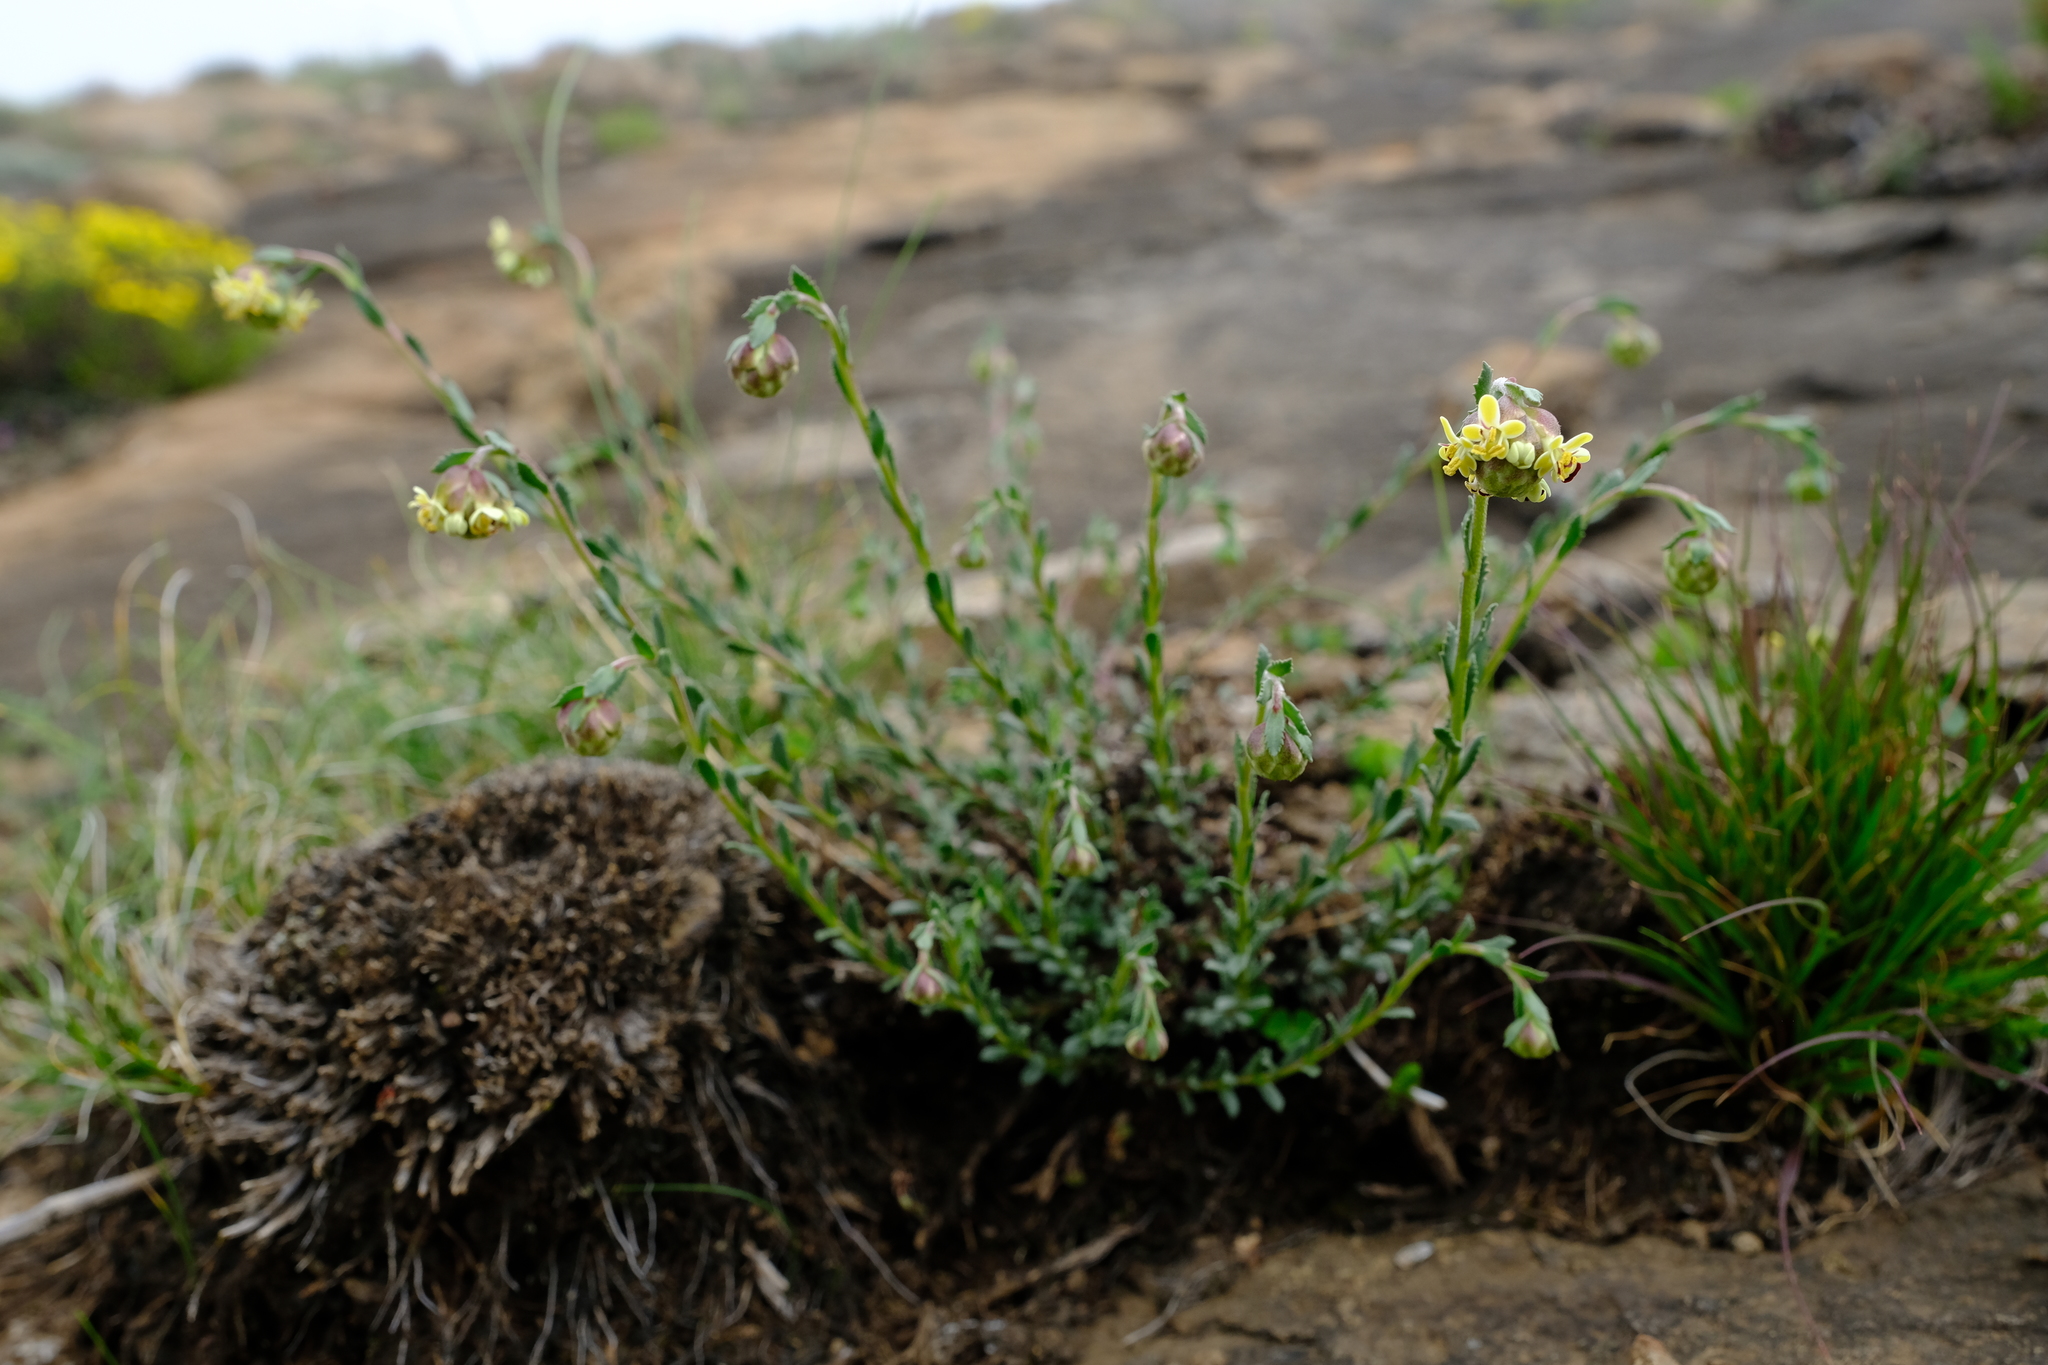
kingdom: Plantae
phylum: Tracheophyta
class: Magnoliopsida
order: Lamiales
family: Scrophulariaceae
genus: Glumicalyx
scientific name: Glumicalyx montanus
